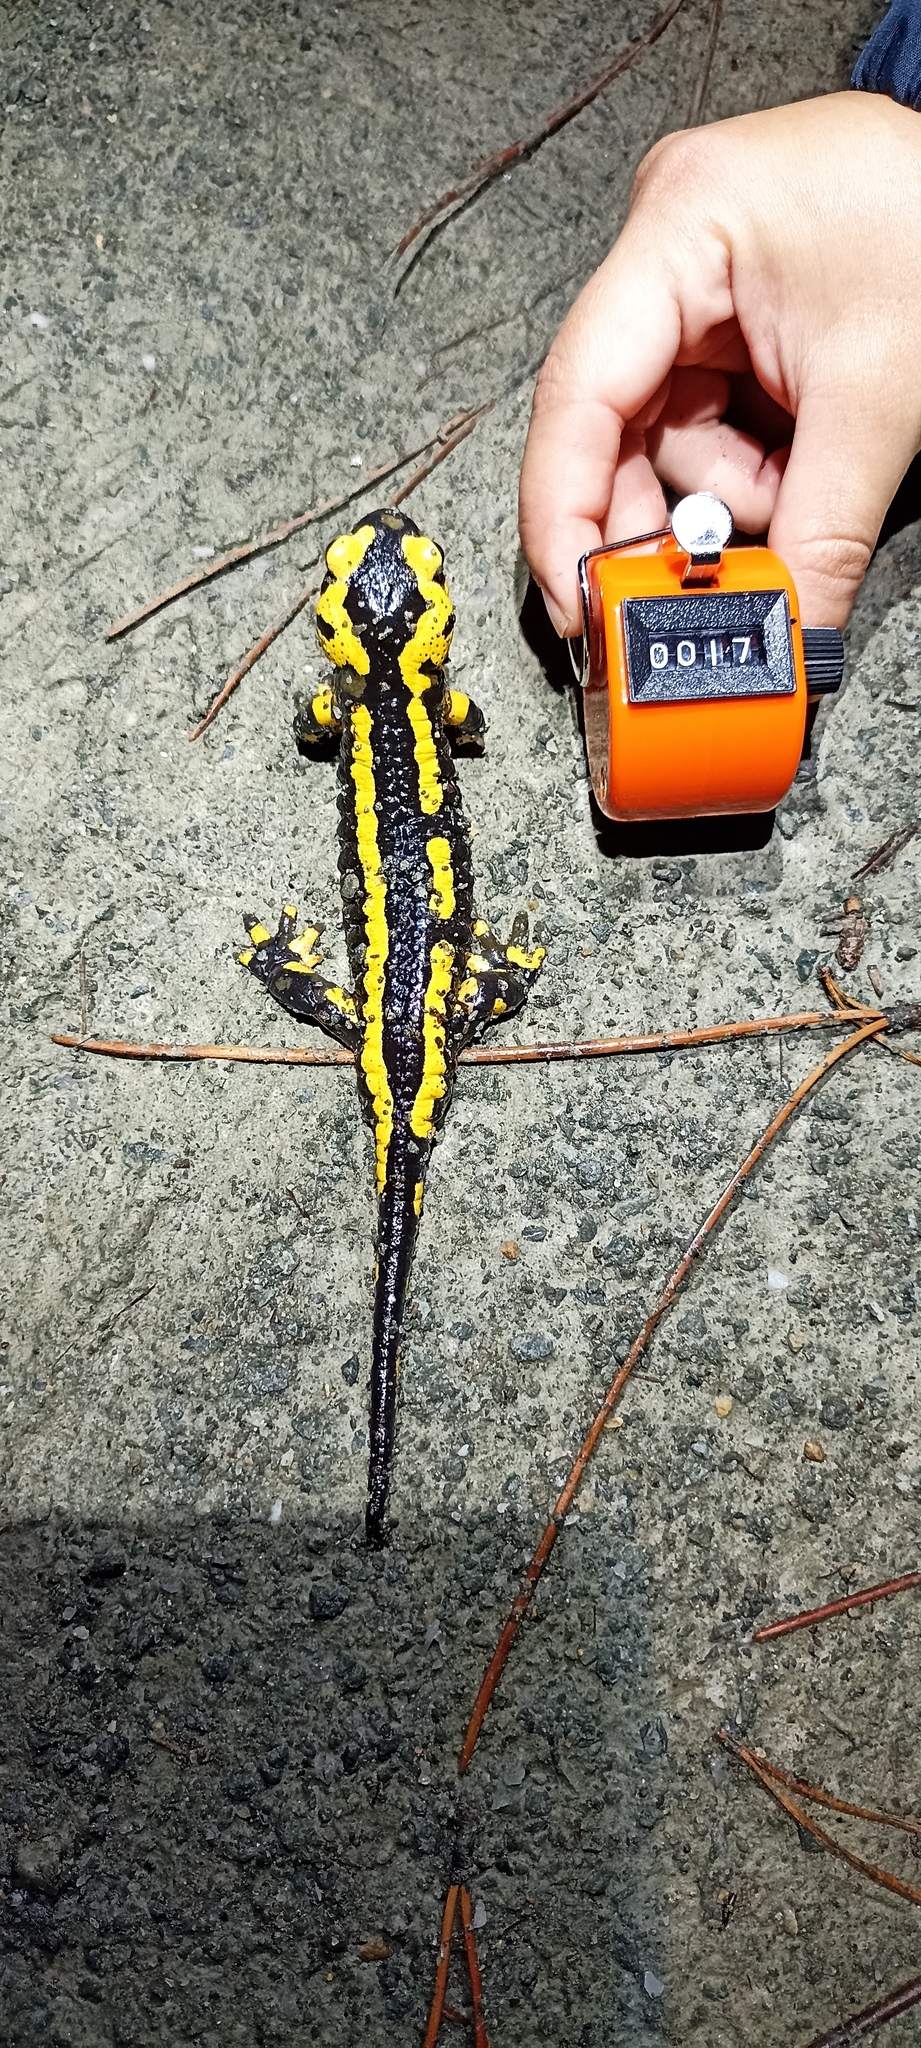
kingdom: Animalia
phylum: Chordata
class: Amphibia
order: Caudata
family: Salamandridae
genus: Salamandra
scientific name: Salamandra salamandra
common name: Fire salamander
